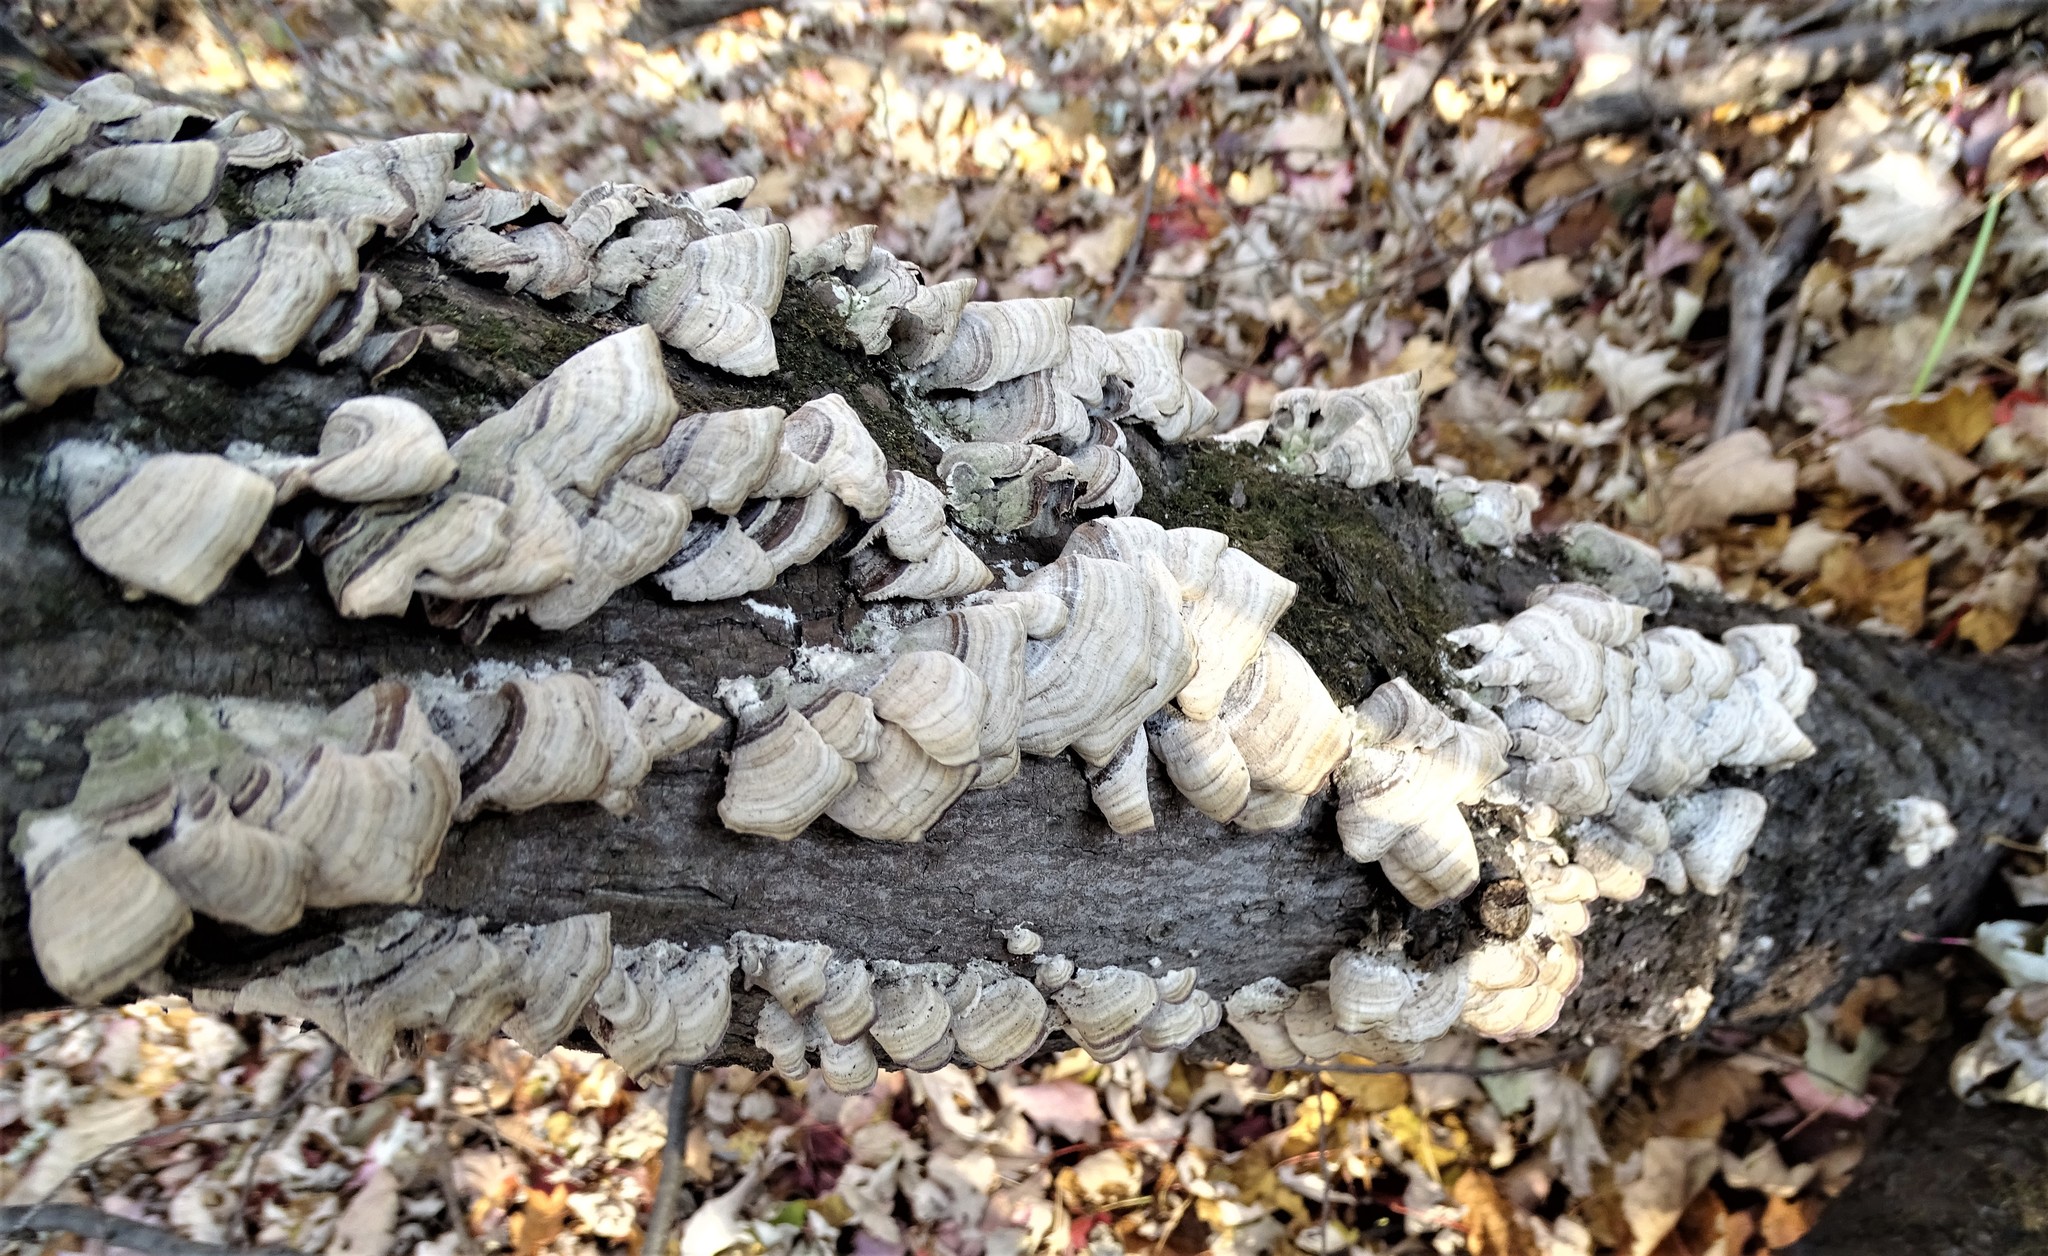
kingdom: Fungi
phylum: Basidiomycota
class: Agaricomycetes
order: Hymenochaetales
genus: Trichaptum
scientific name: Trichaptum biforme
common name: Violet-toothed polypore
